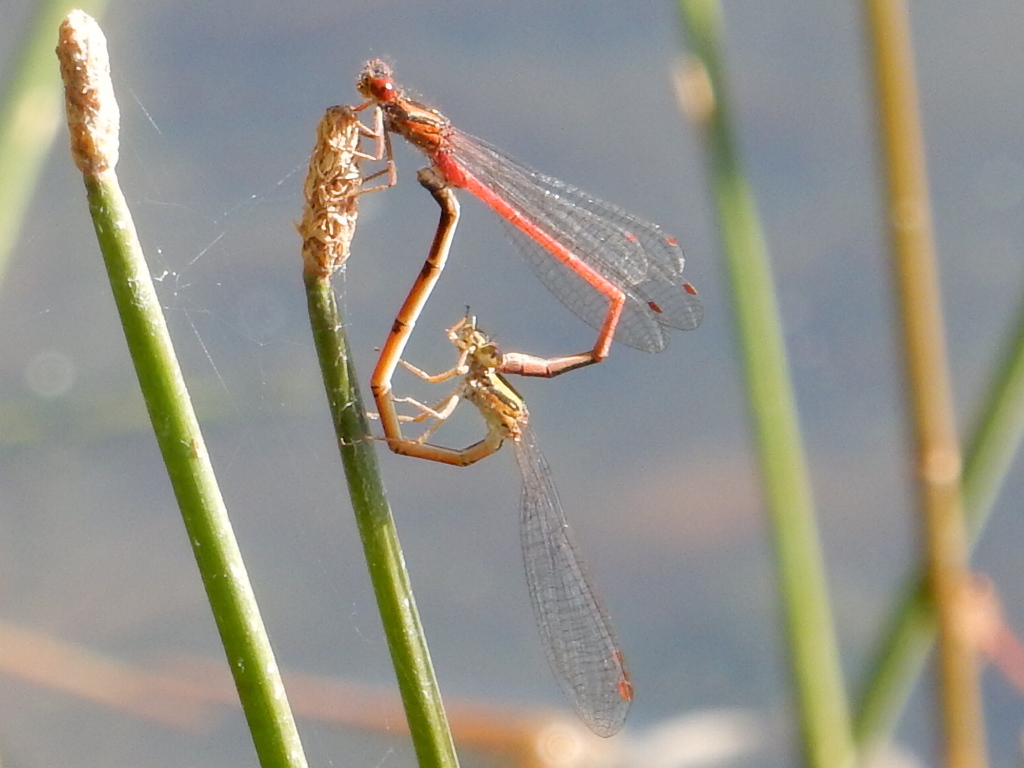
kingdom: Animalia
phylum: Arthropoda
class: Insecta
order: Odonata
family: Coenagrionidae
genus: Xanthocnemis
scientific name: Xanthocnemis zealandica
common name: Common redcoat damselfly
